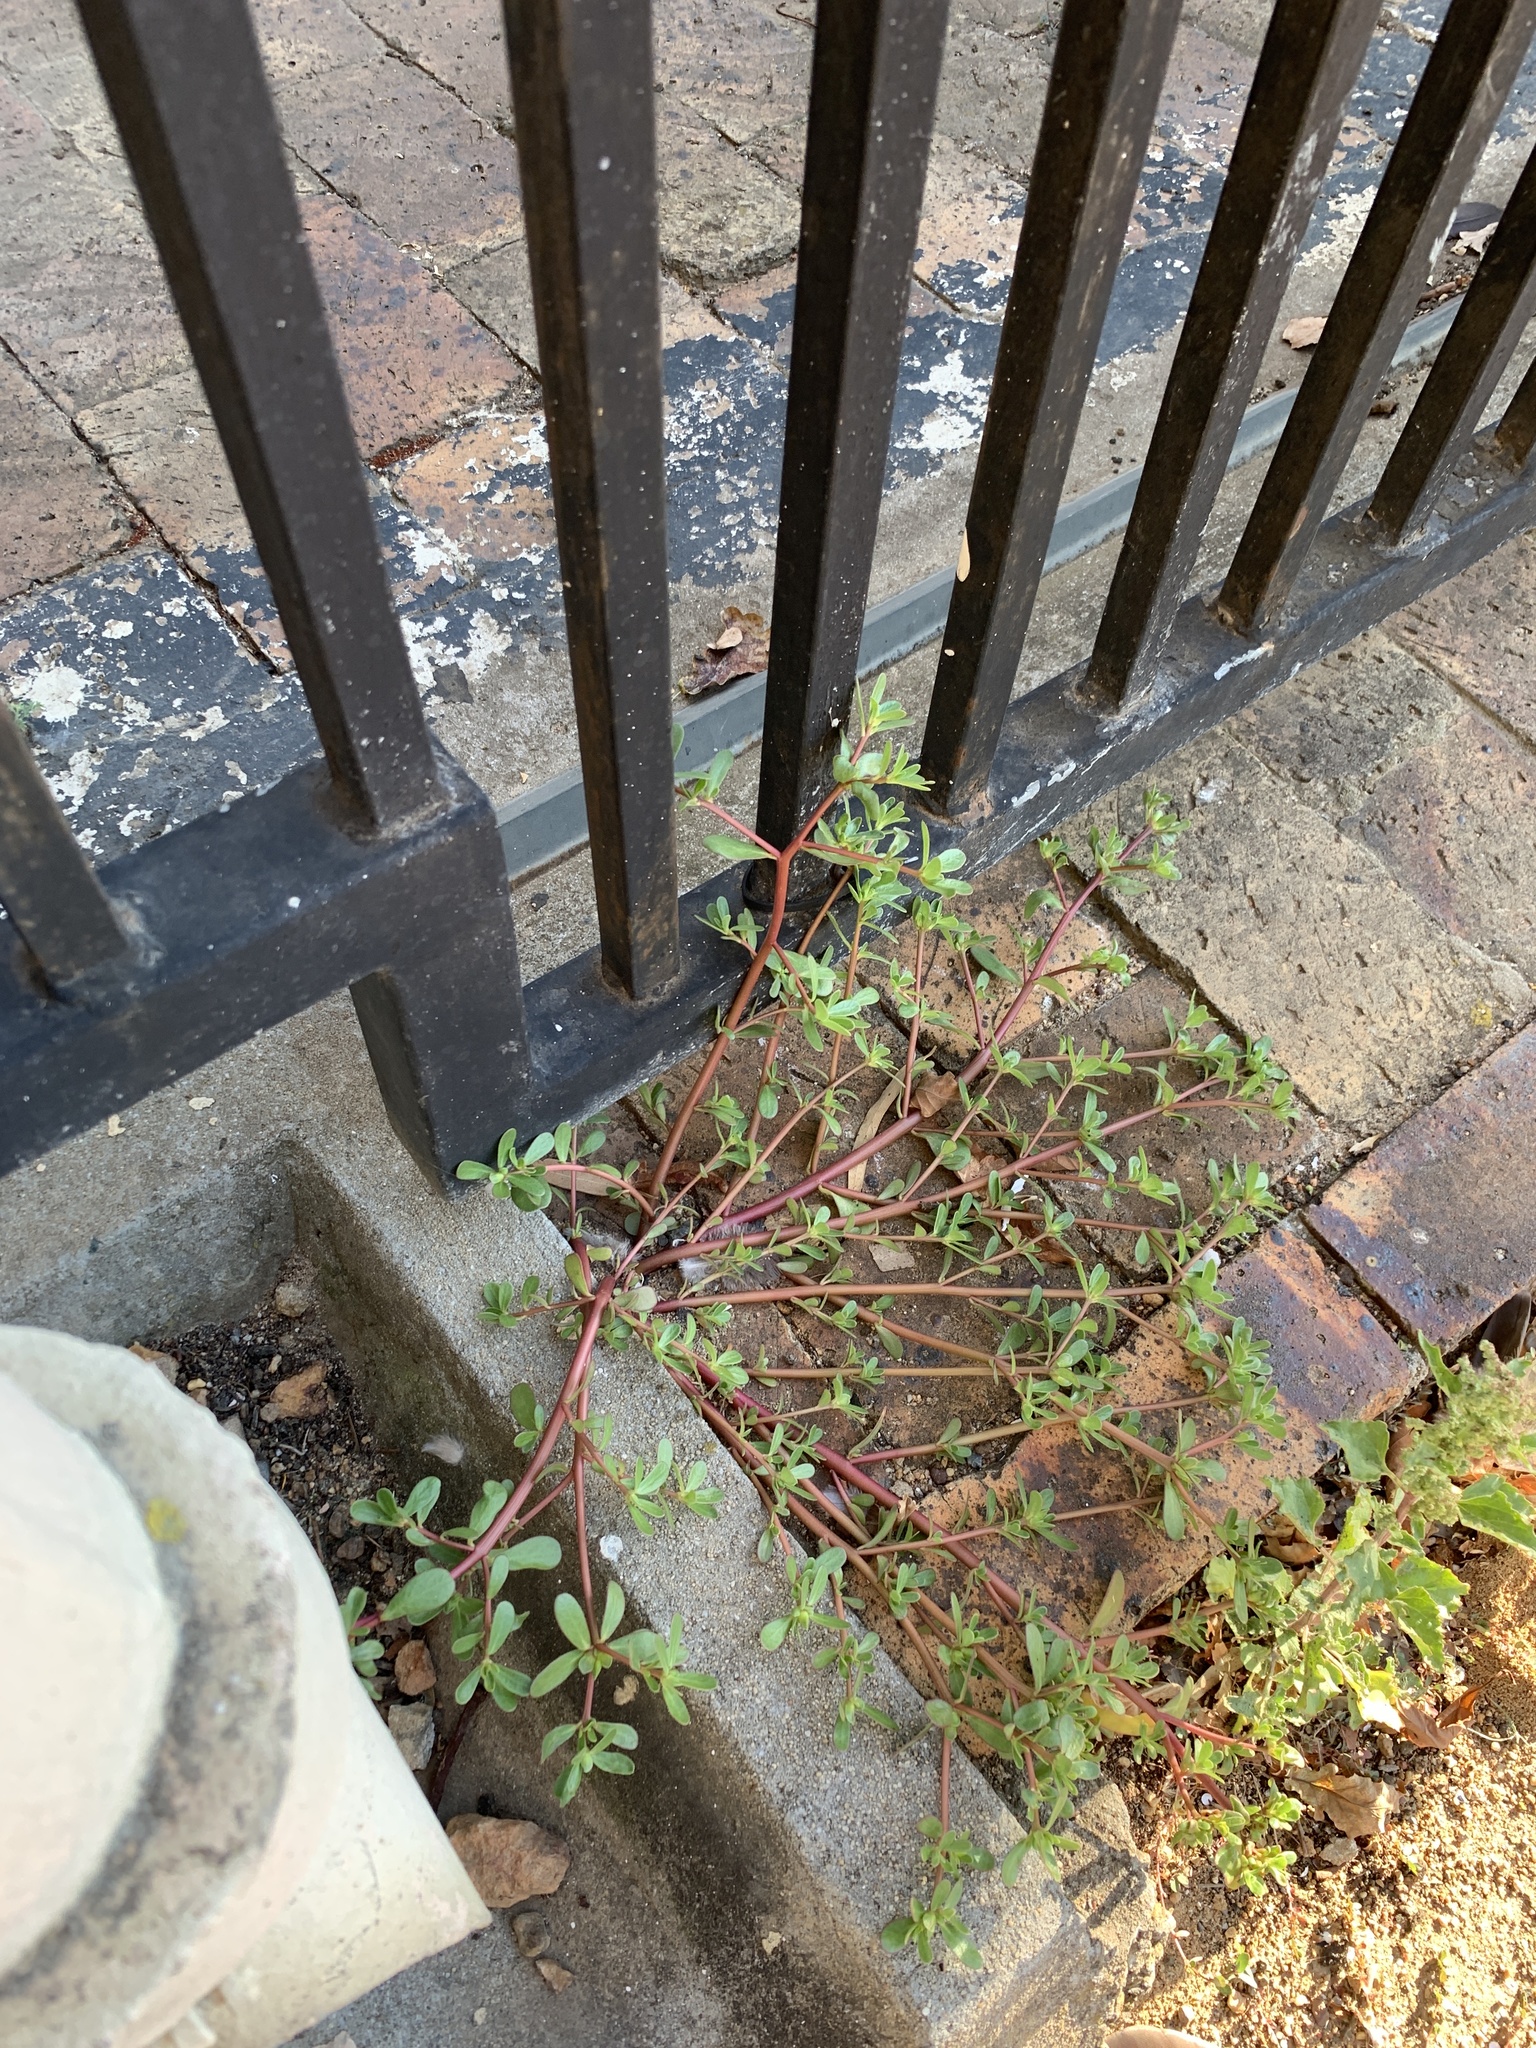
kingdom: Plantae
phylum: Tracheophyta
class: Magnoliopsida
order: Caryophyllales
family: Portulacaceae
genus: Portulaca
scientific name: Portulaca oleracea
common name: Common purslane
